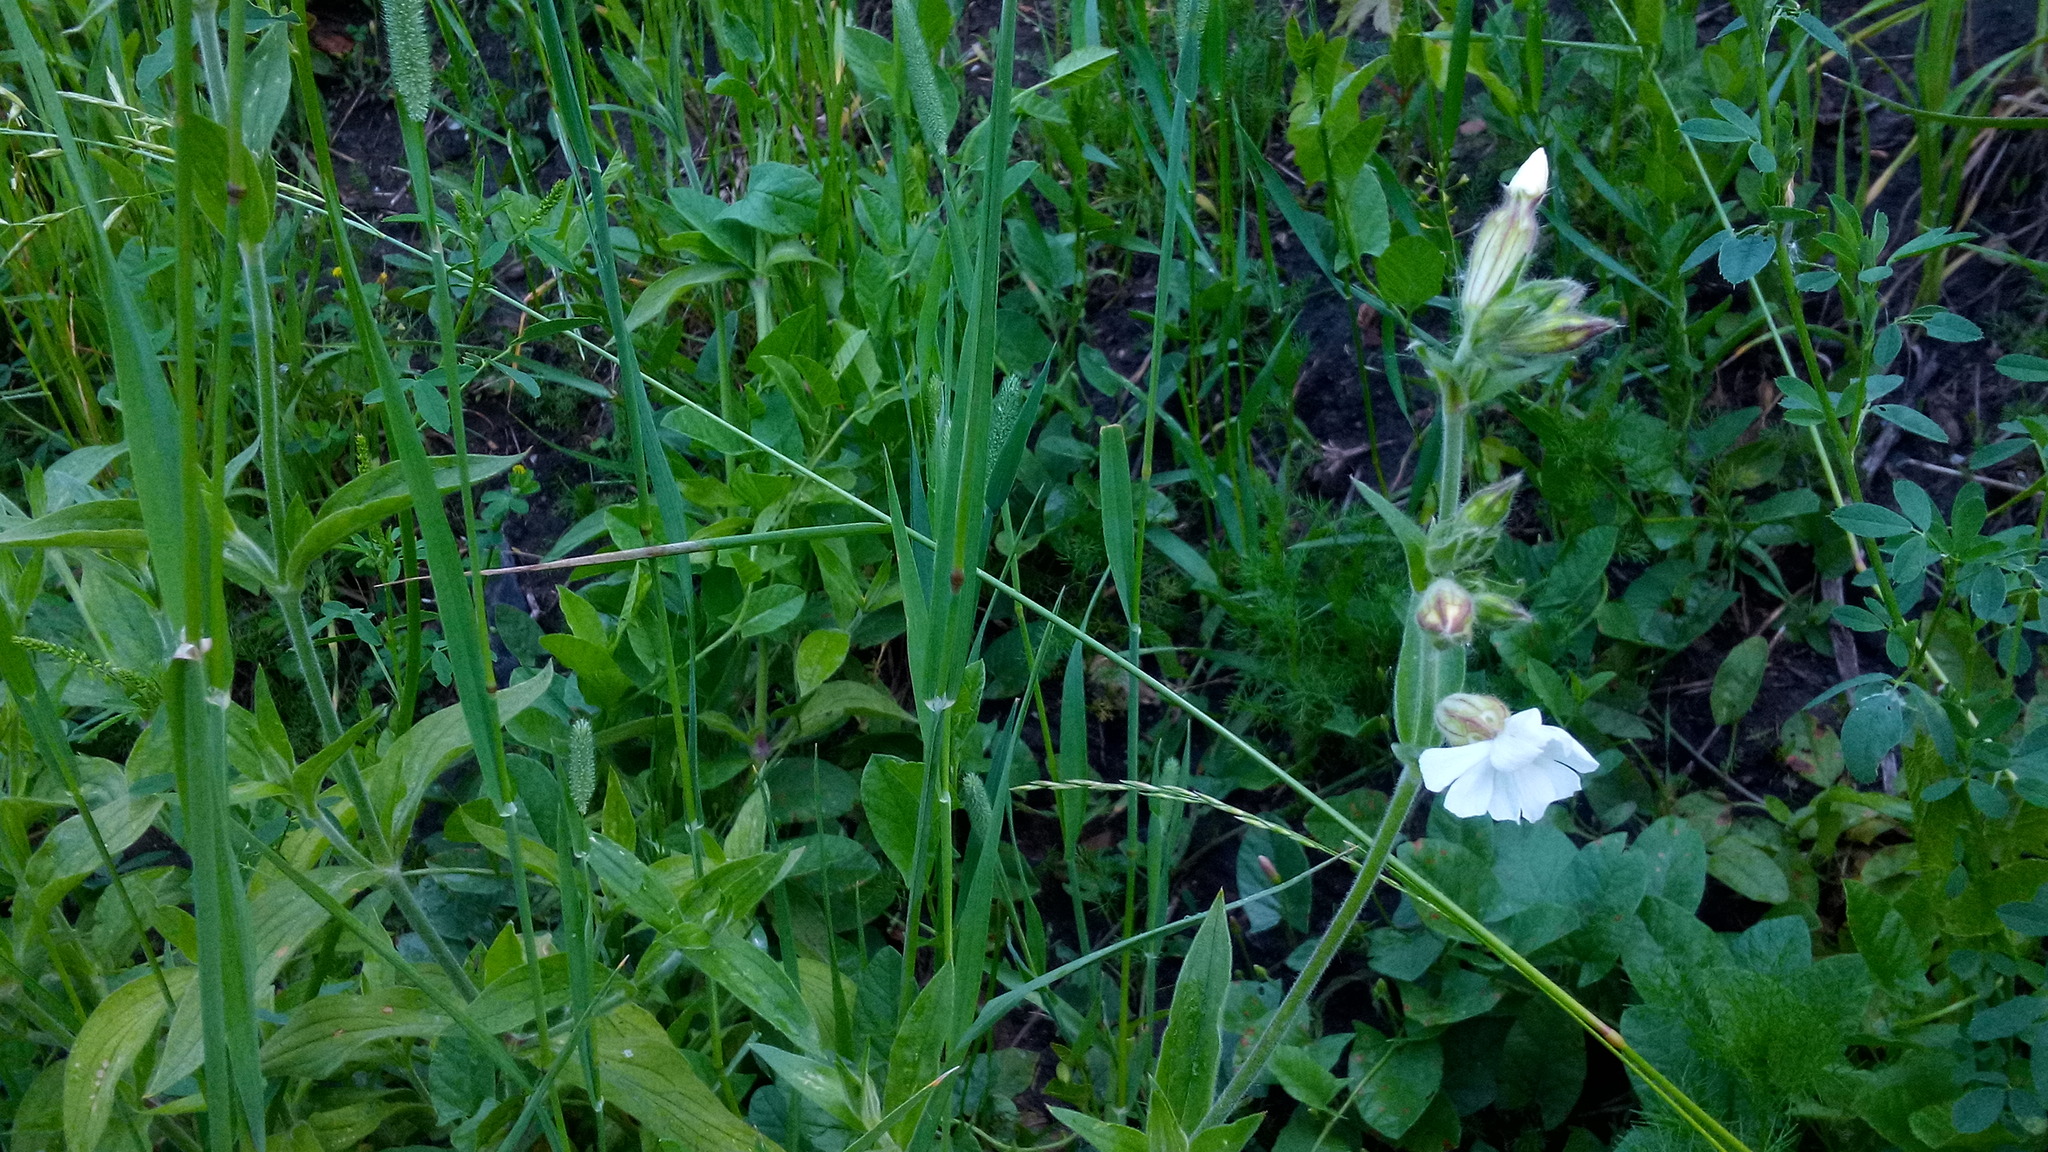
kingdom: Plantae
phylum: Tracheophyta
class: Magnoliopsida
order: Caryophyllales
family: Caryophyllaceae
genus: Silene
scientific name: Silene latifolia
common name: White campion
